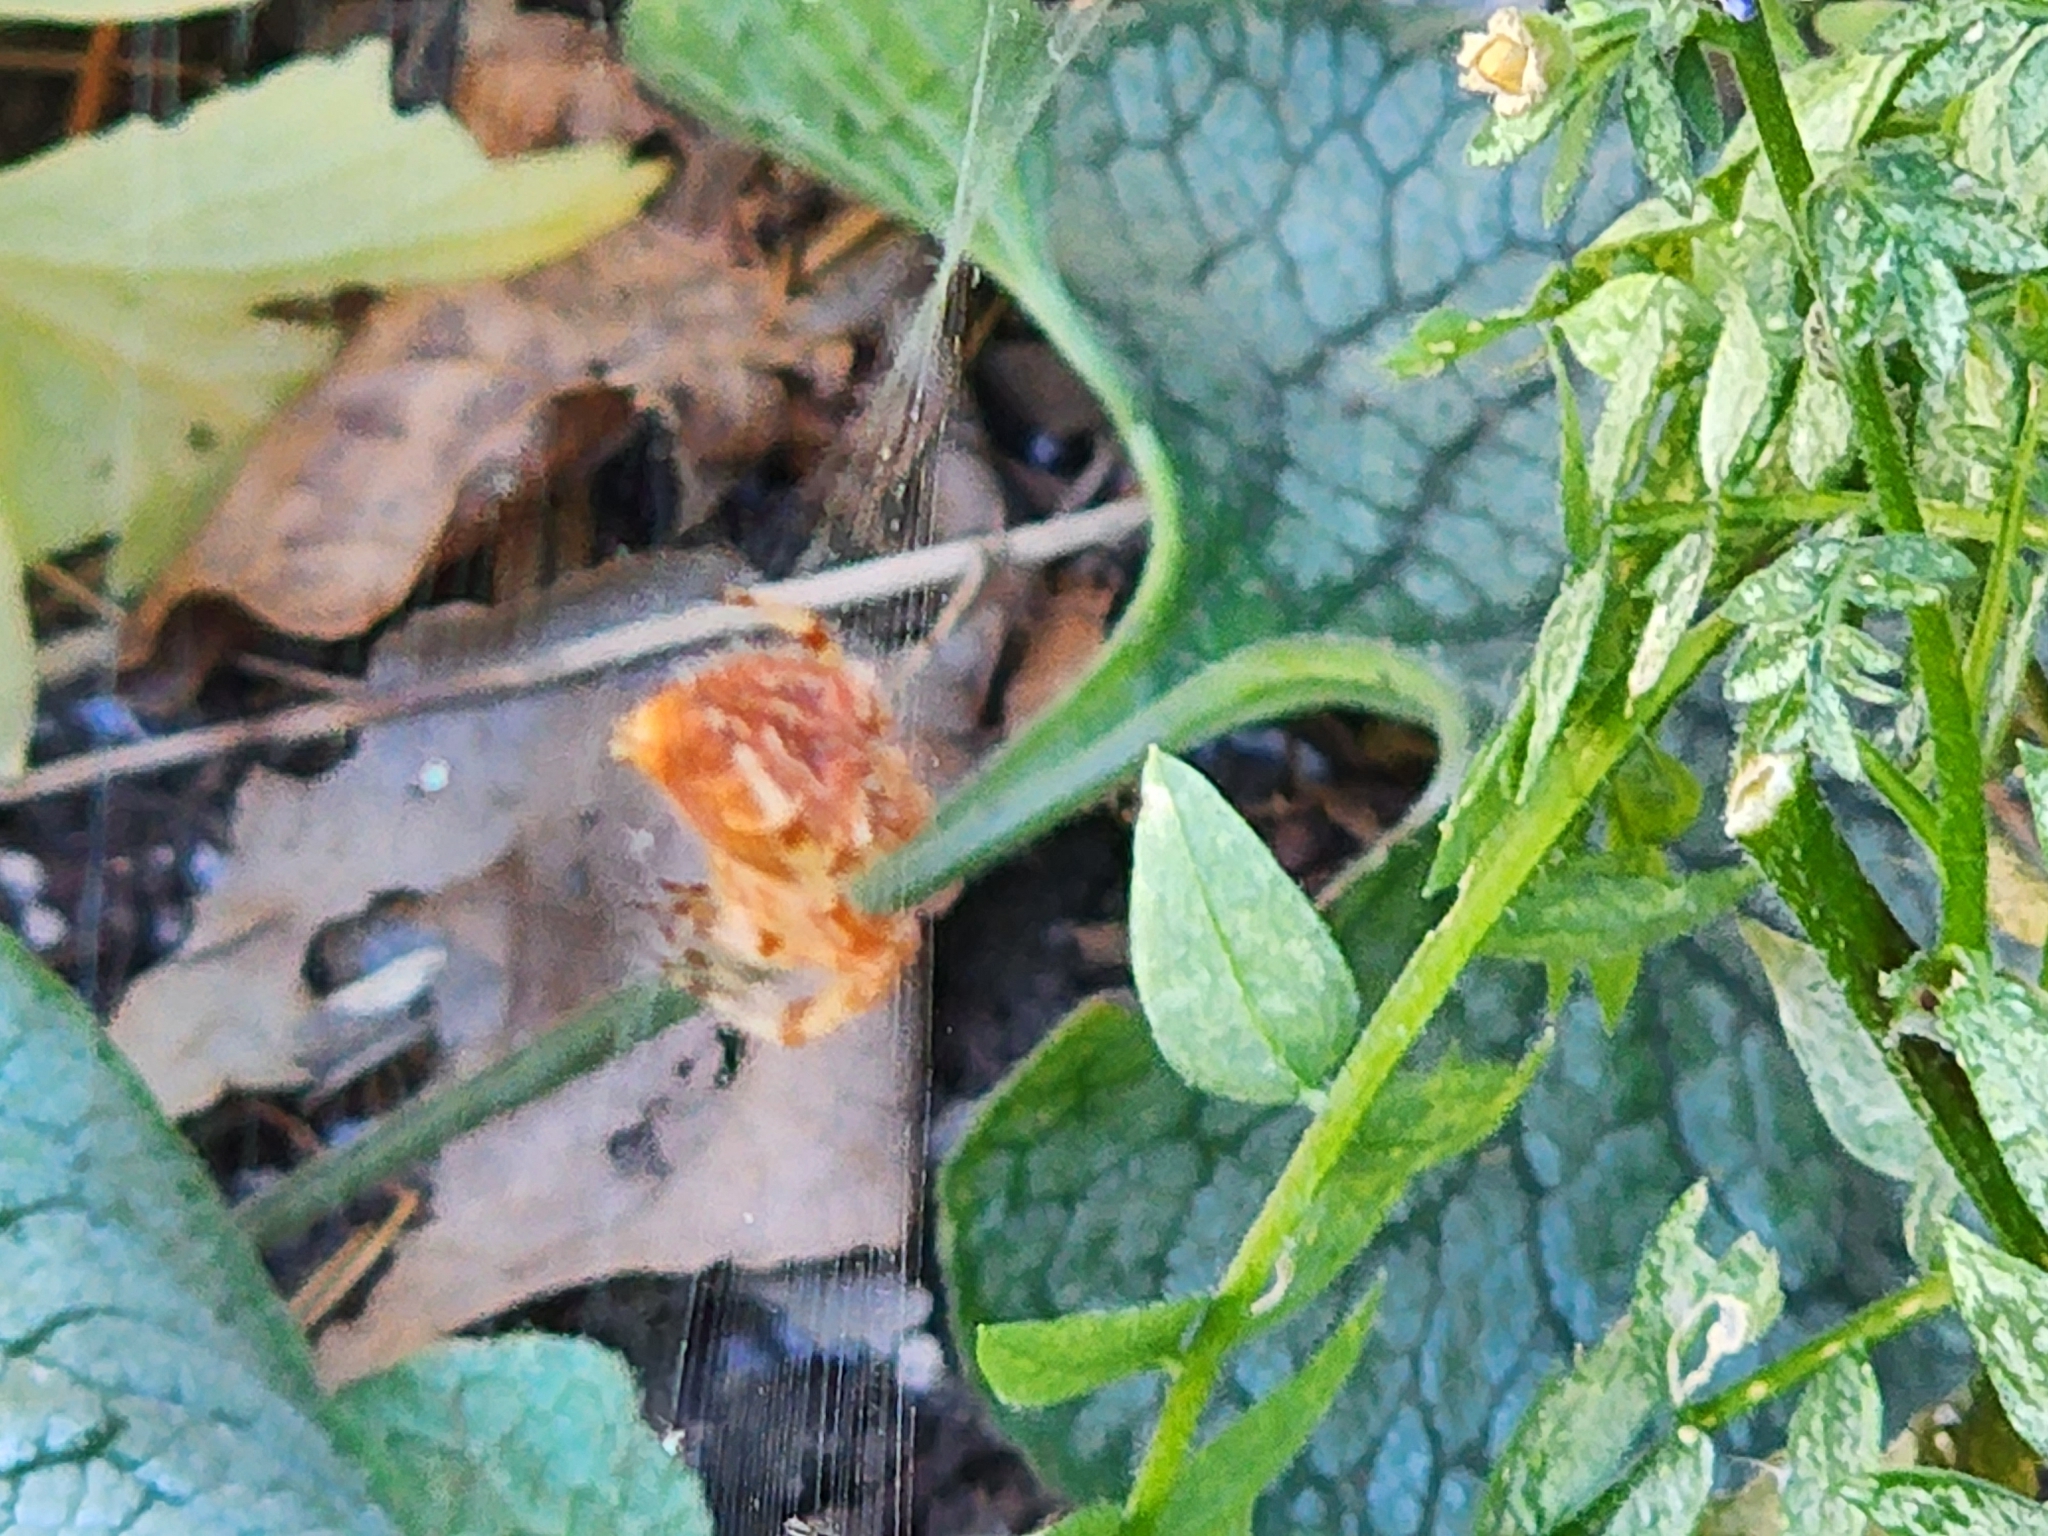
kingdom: Animalia
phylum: Arthropoda
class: Arachnida
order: Araneae
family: Araneidae
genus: Araneus
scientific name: Araneus gemmoides
